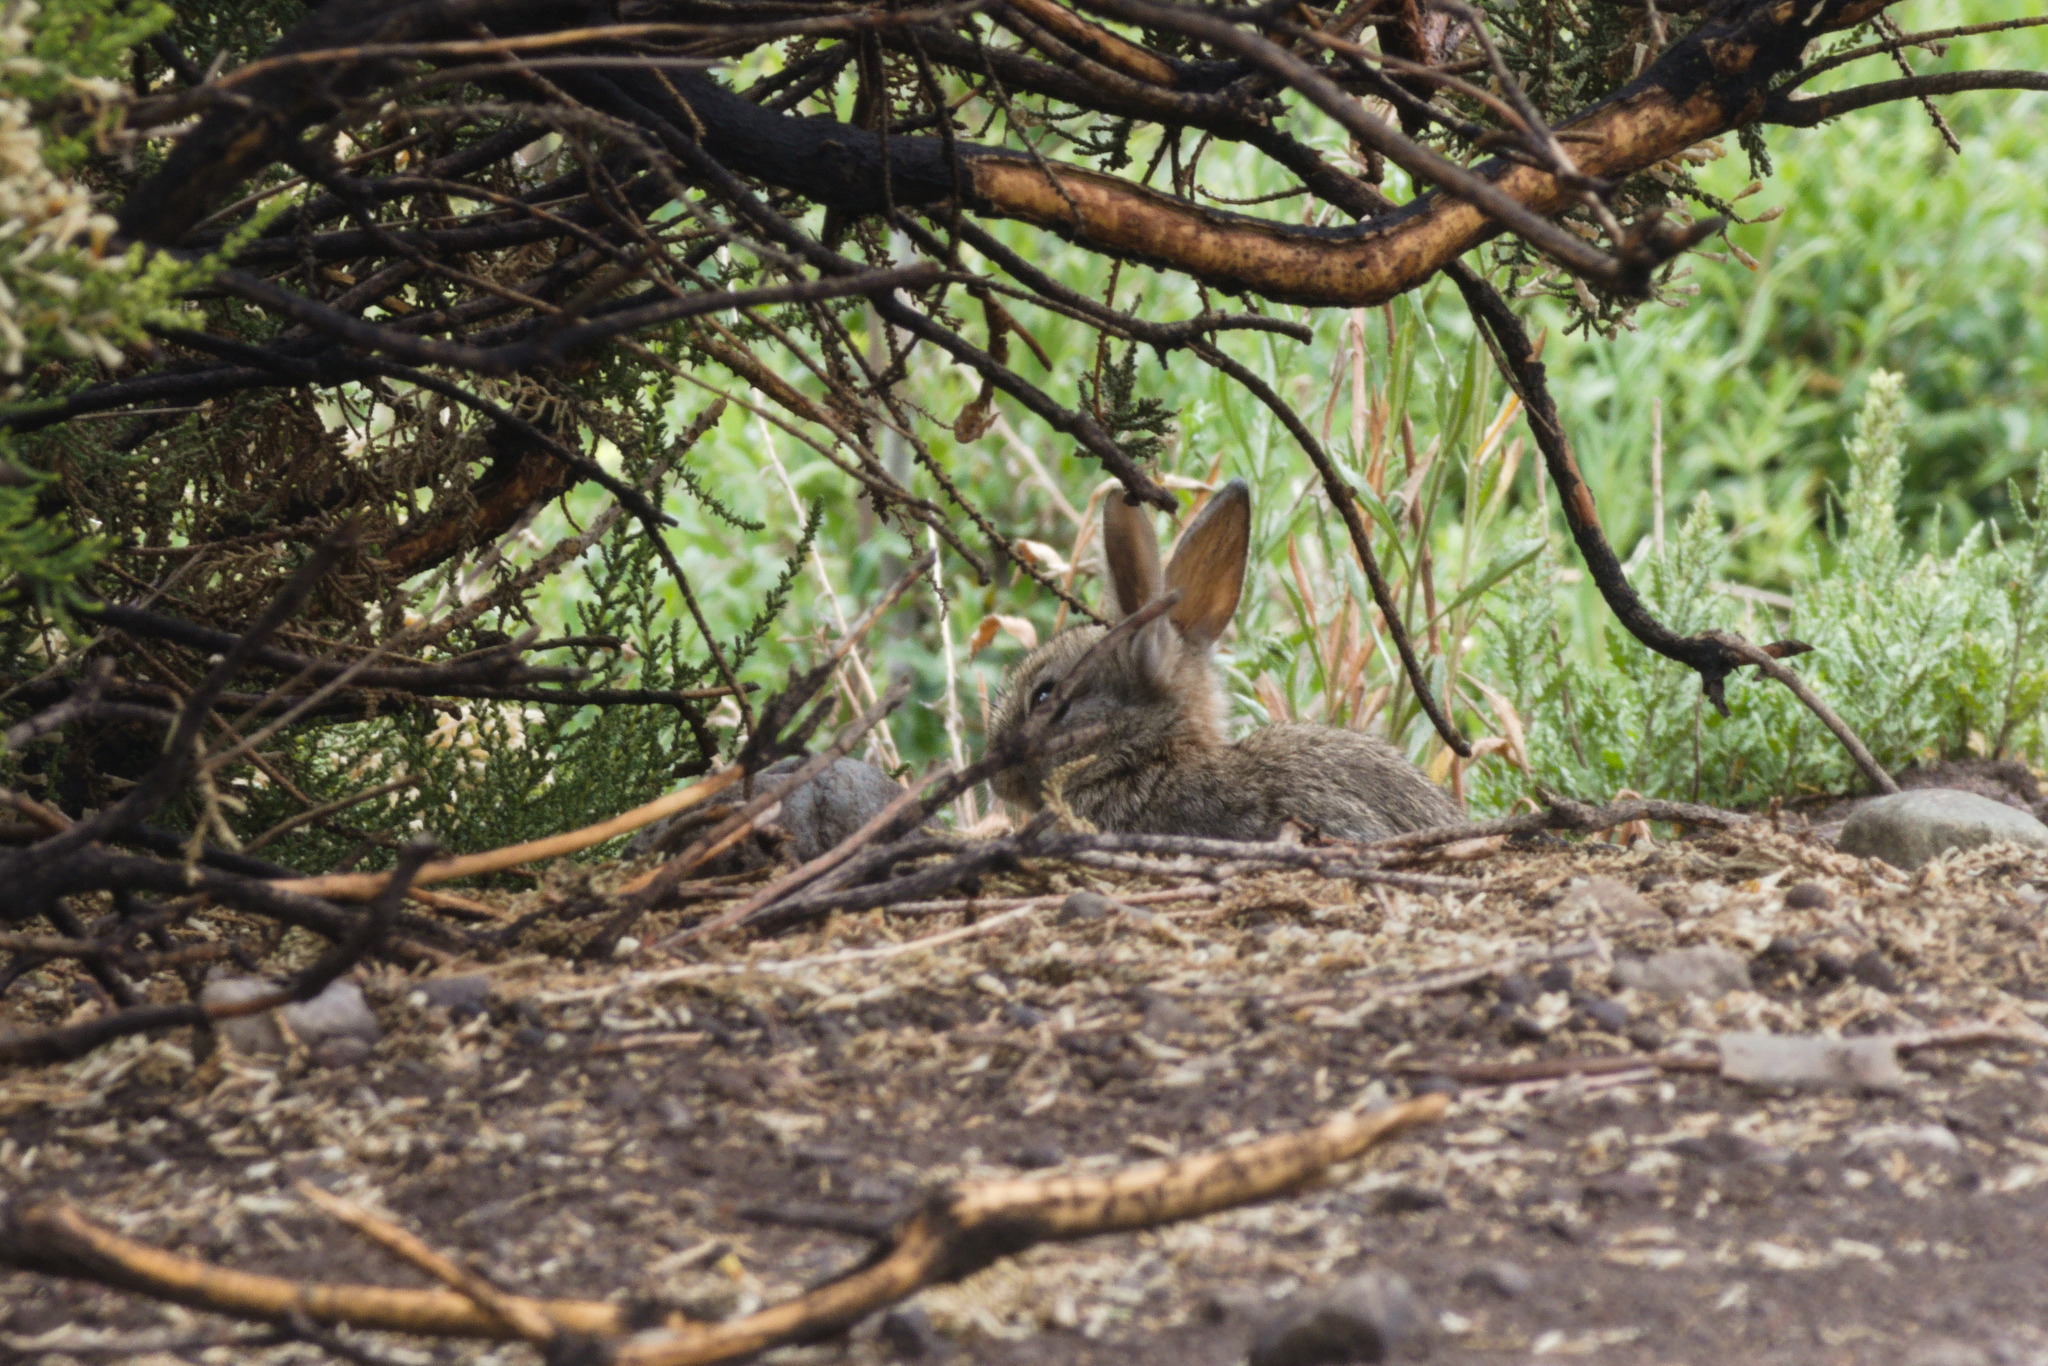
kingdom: Animalia
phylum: Chordata
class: Mammalia
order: Lagomorpha
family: Leporidae
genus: Oryctolagus
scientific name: Oryctolagus cuniculus
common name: European rabbit
